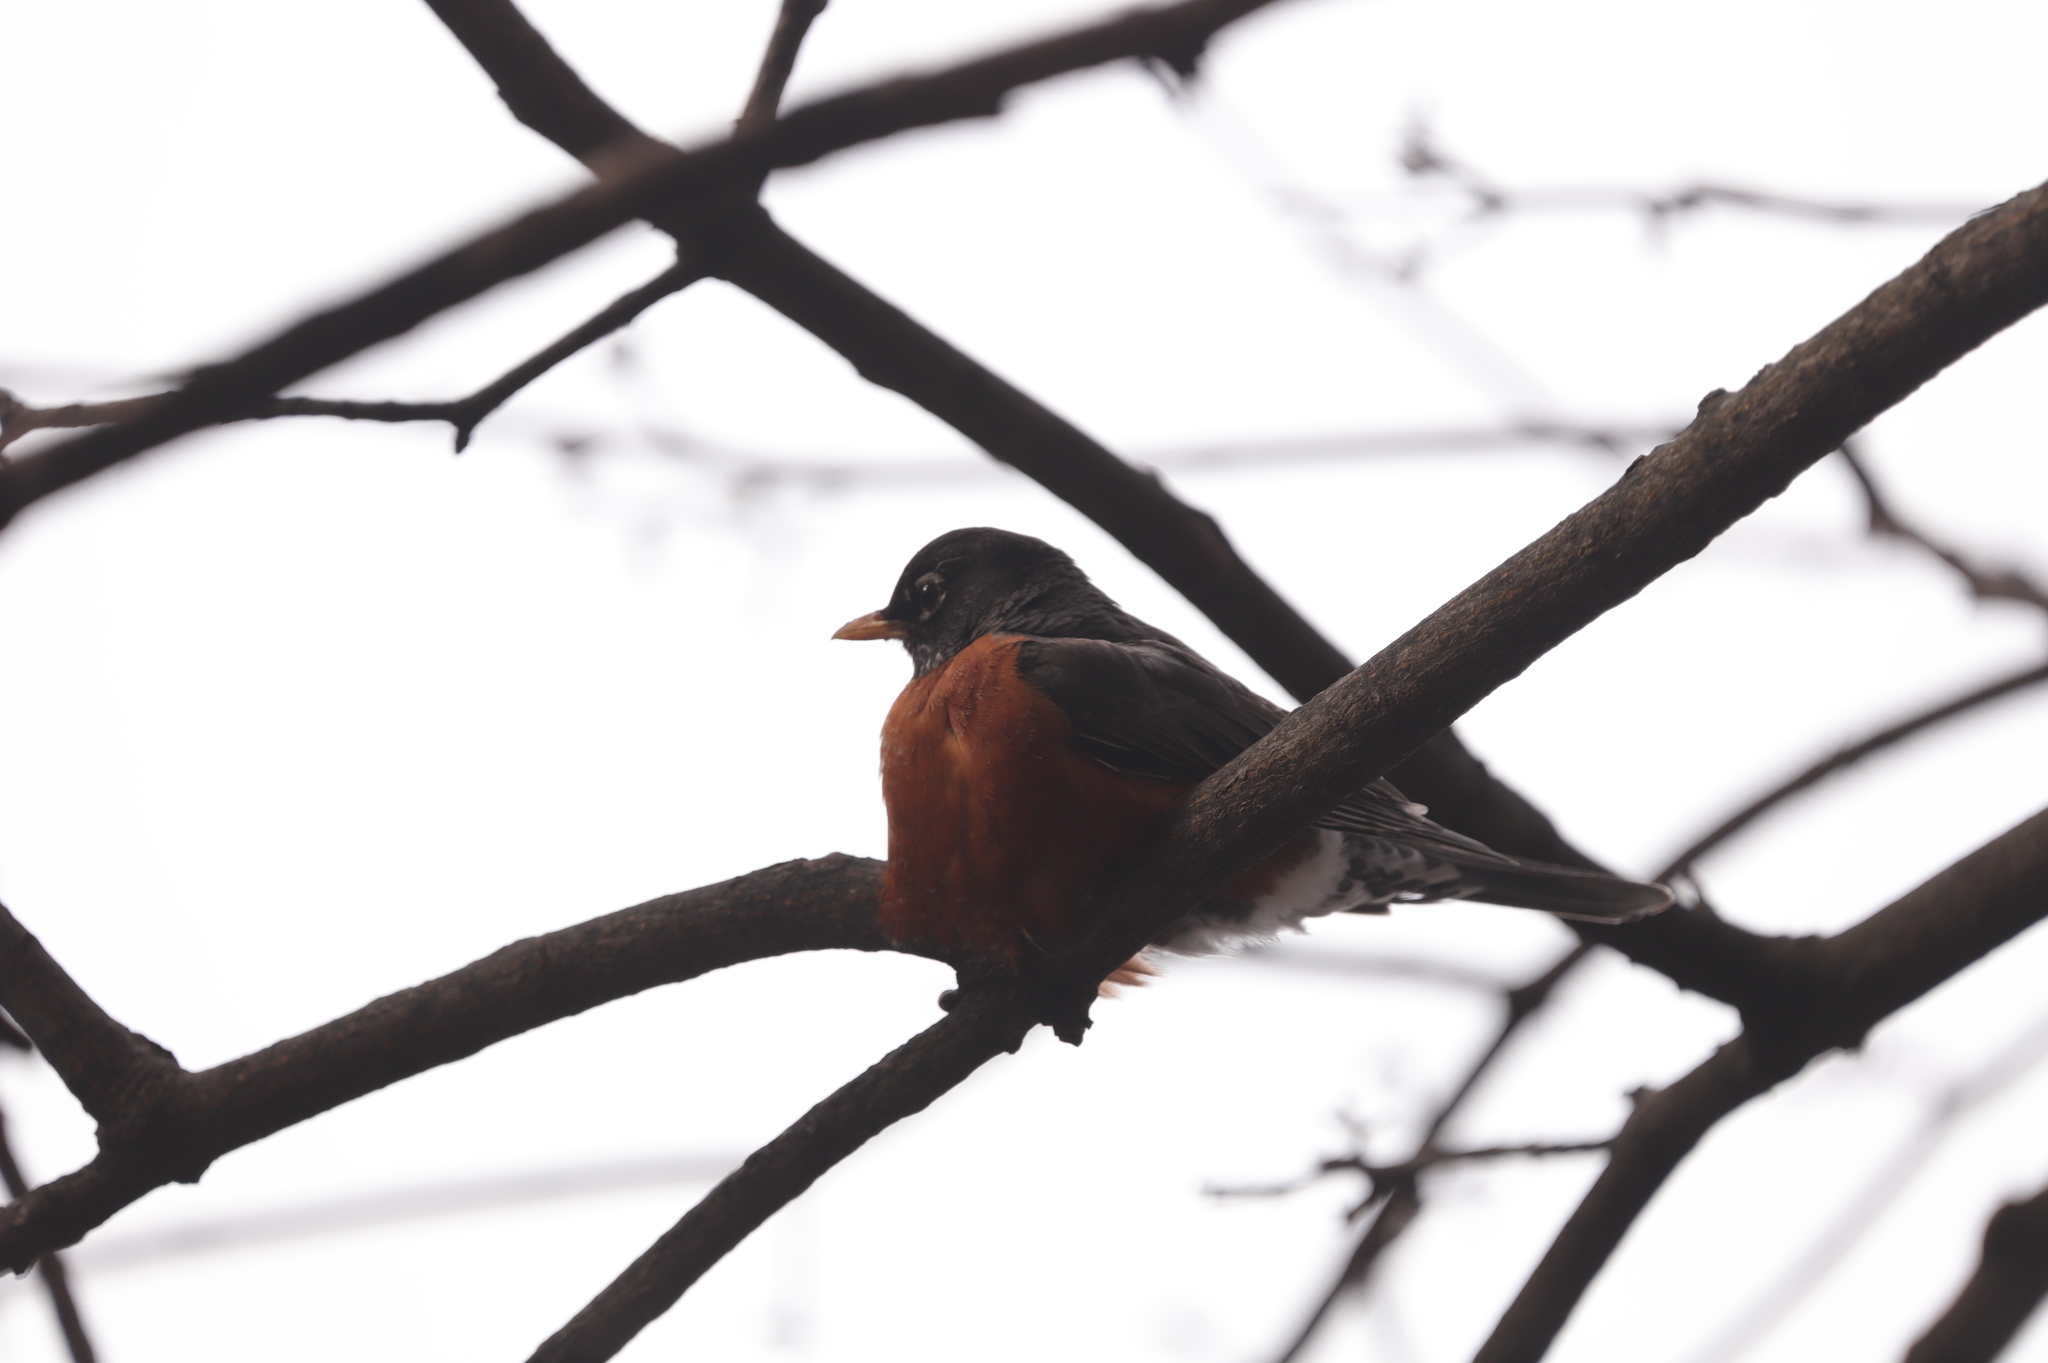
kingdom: Animalia
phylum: Chordata
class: Aves
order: Passeriformes
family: Turdidae
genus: Turdus
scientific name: Turdus migratorius
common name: American robin
